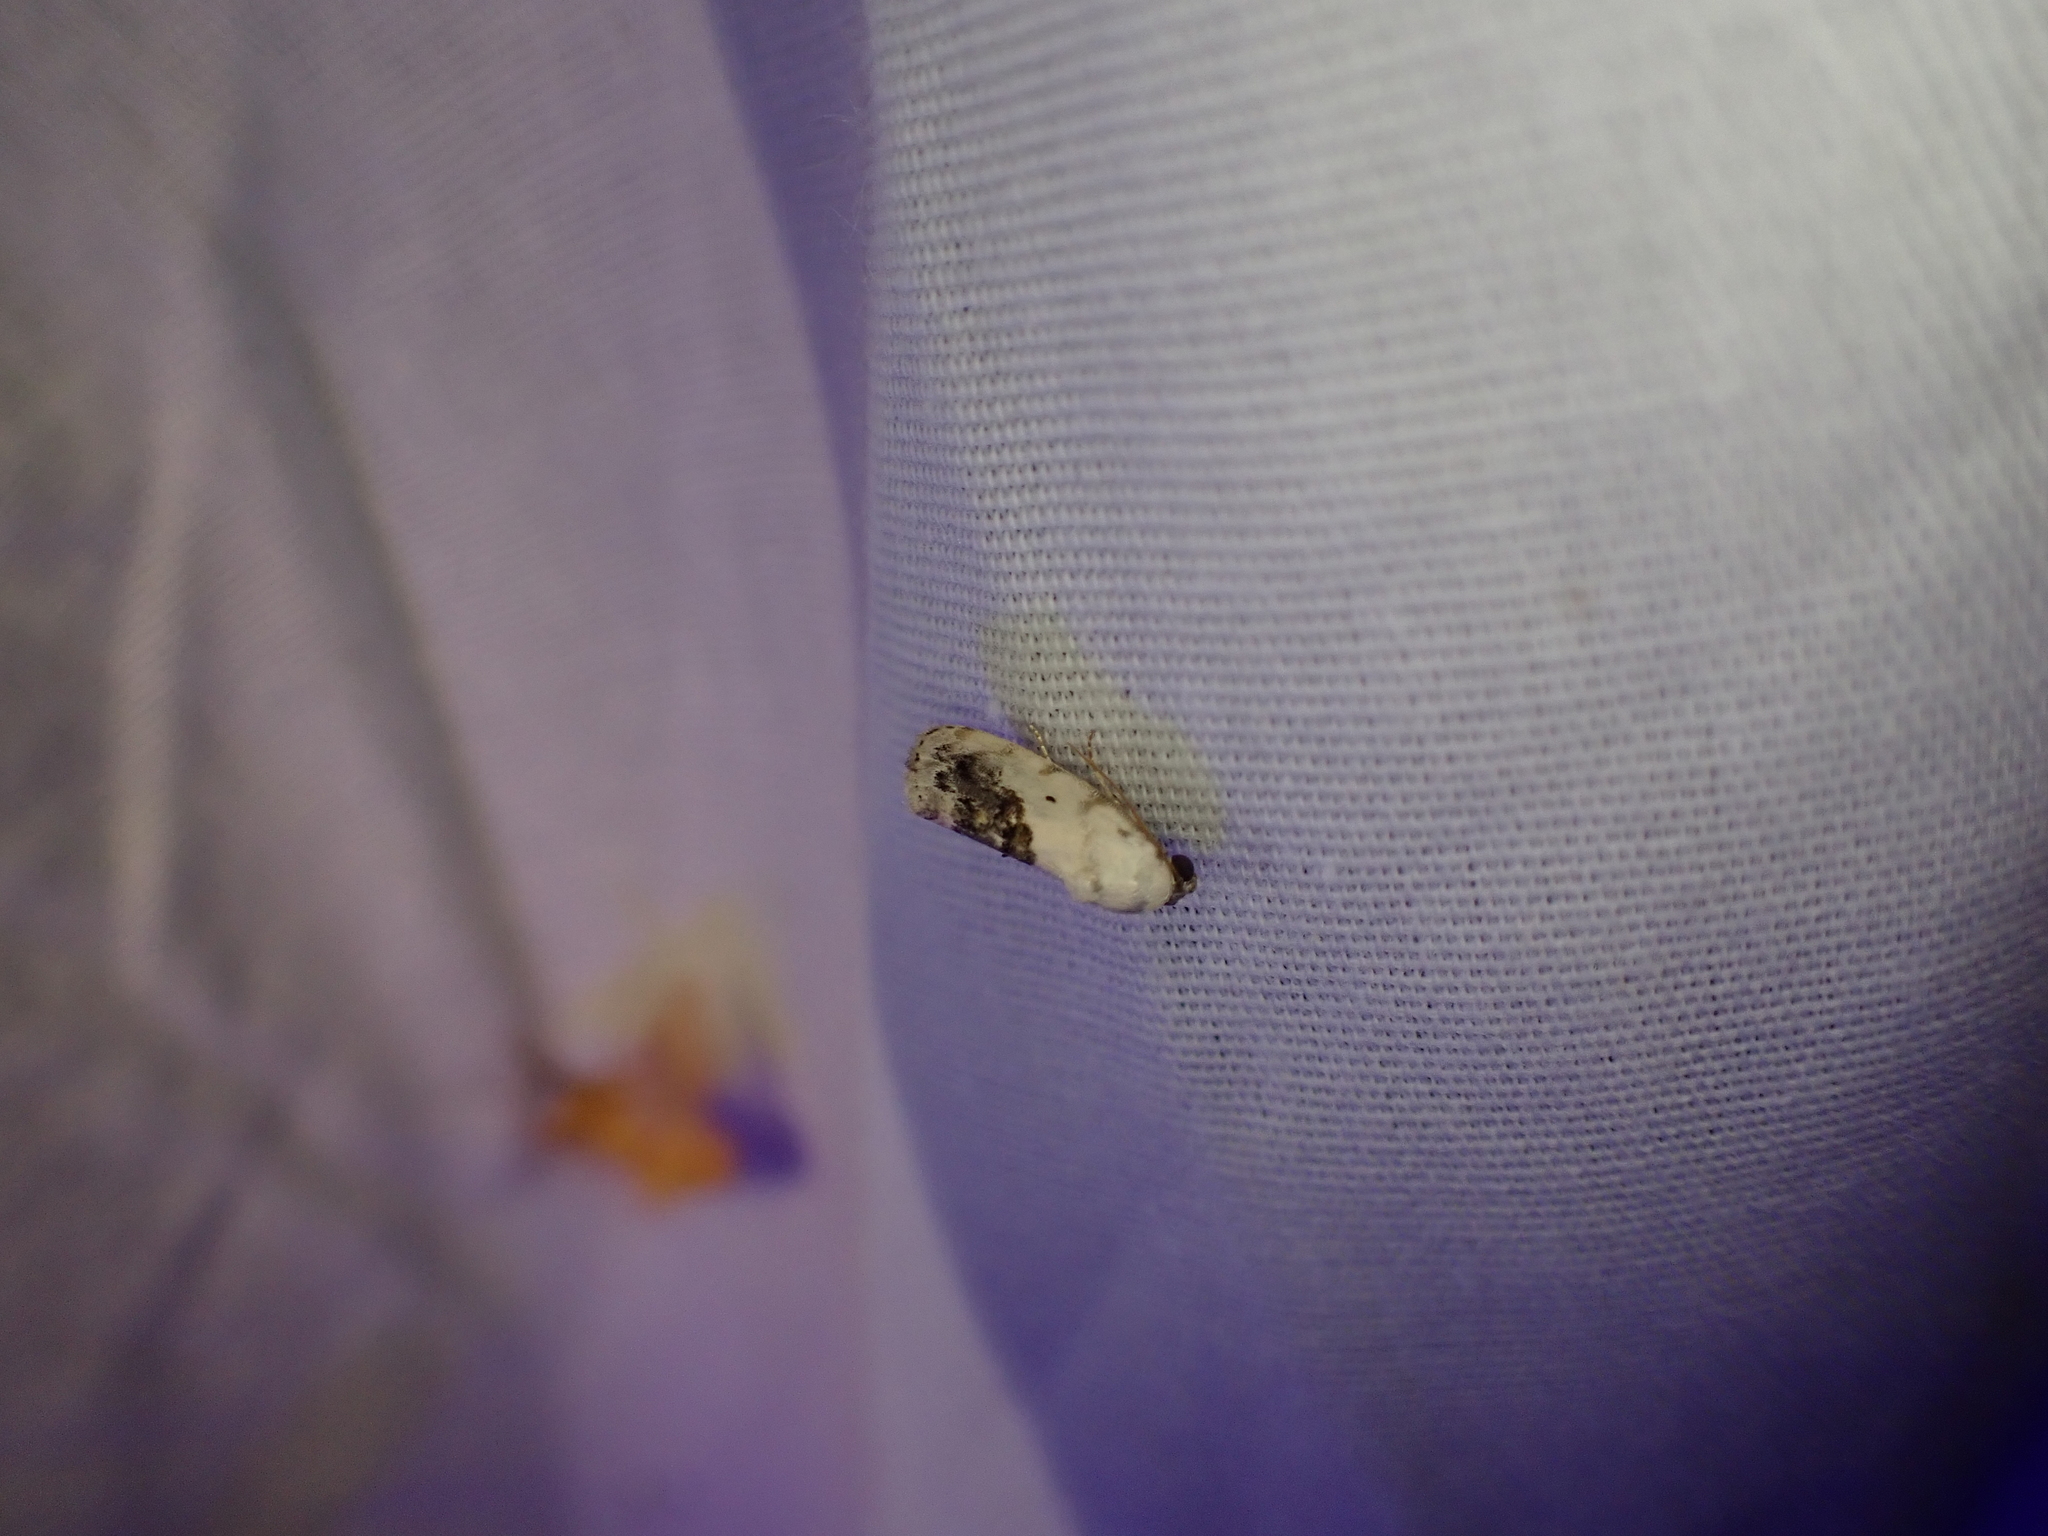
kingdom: Animalia
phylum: Arthropoda
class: Insecta
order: Lepidoptera
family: Noctuidae
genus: Acontia
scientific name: Acontia erastrioides
